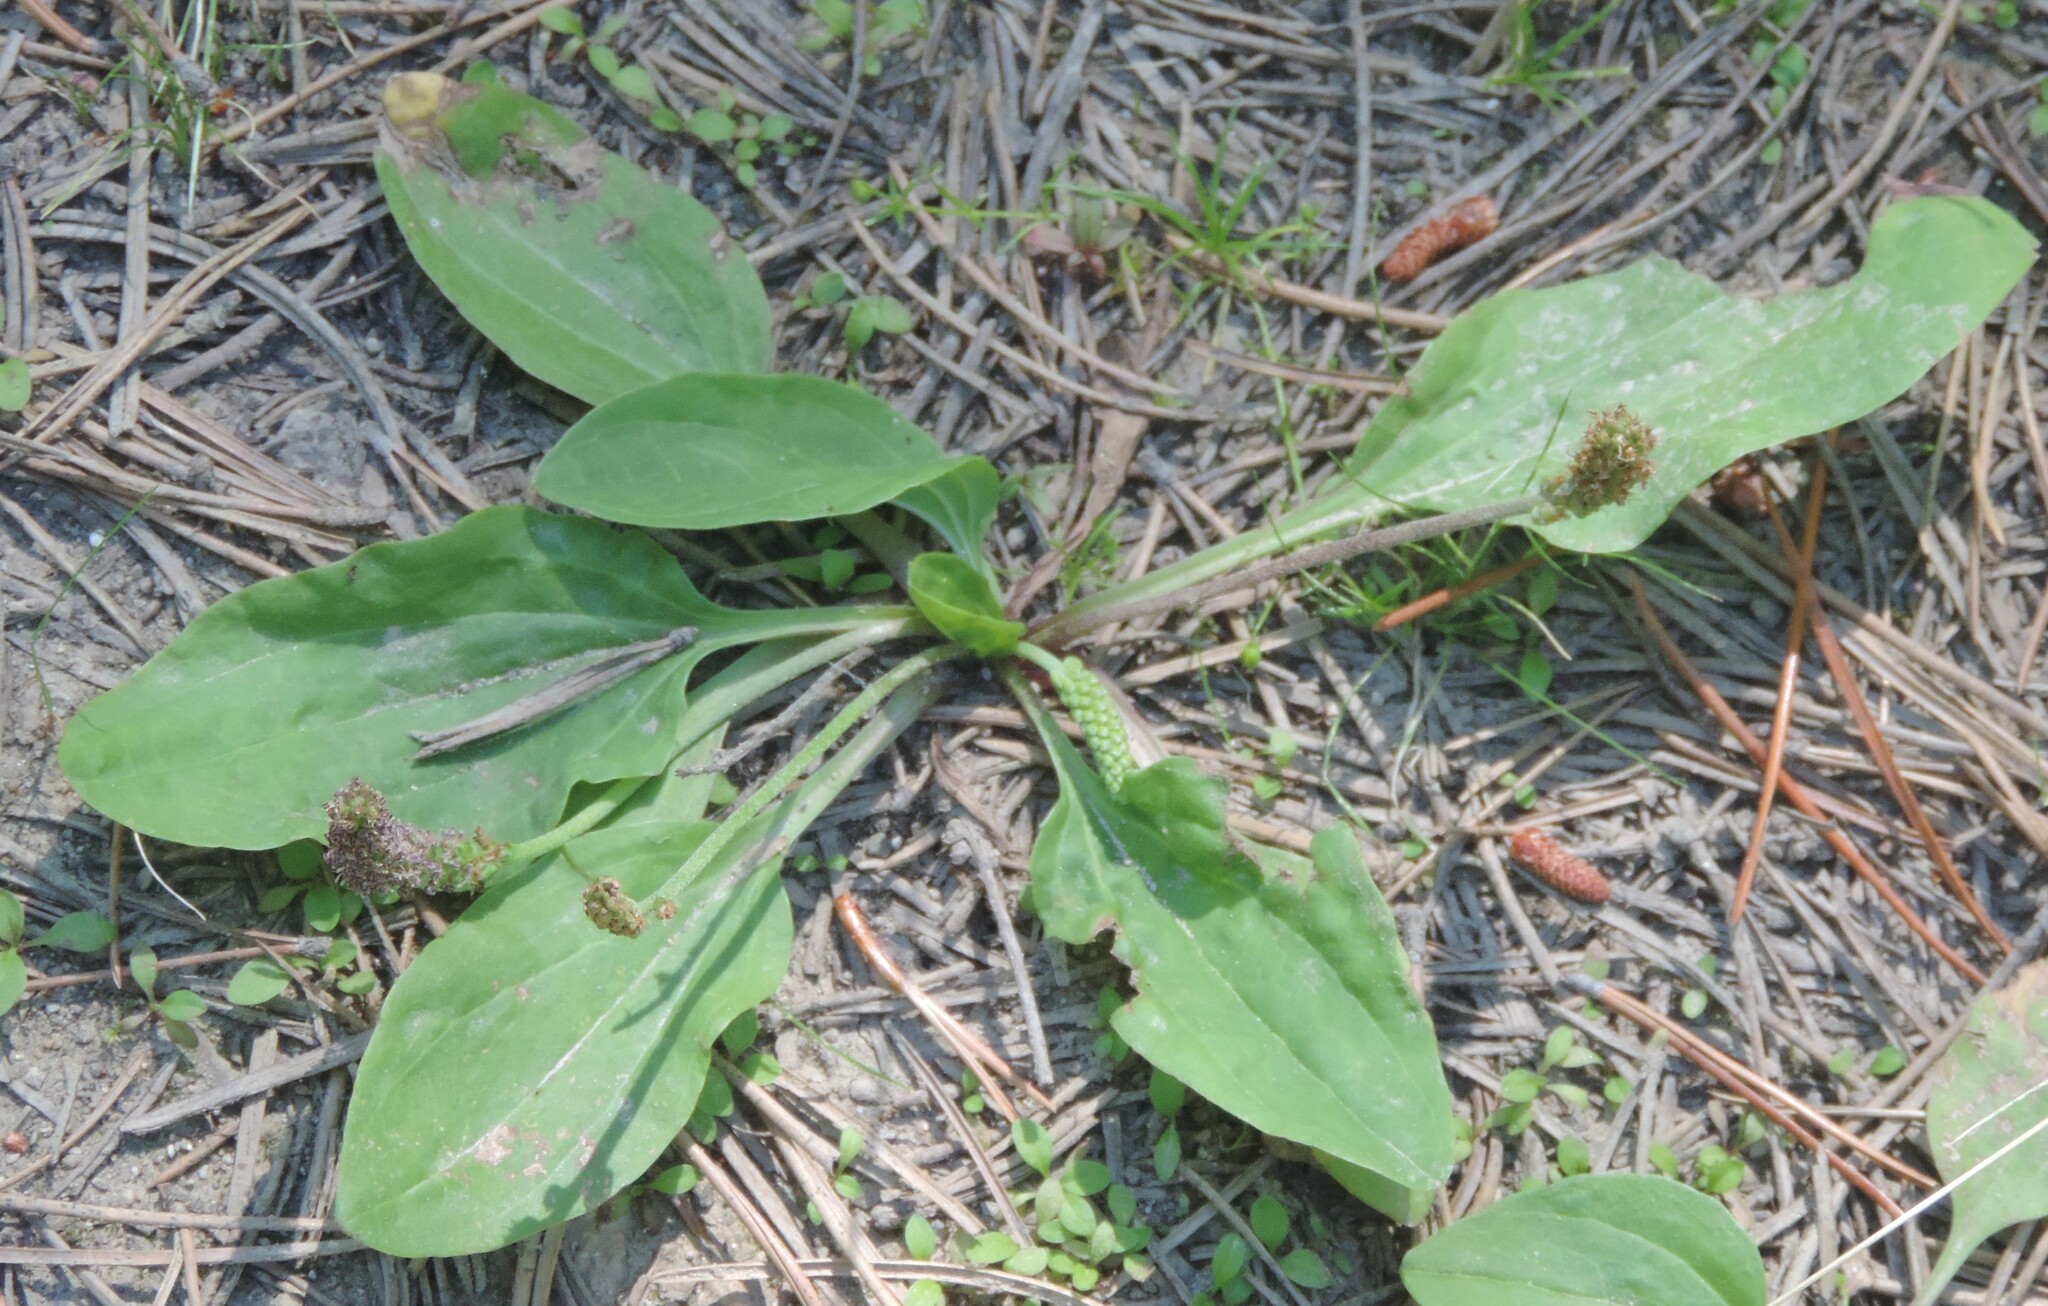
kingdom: Plantae
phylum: Tracheophyta
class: Magnoliopsida
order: Lamiales
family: Plantaginaceae
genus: Plantago
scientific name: Plantago major
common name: Common plantain
